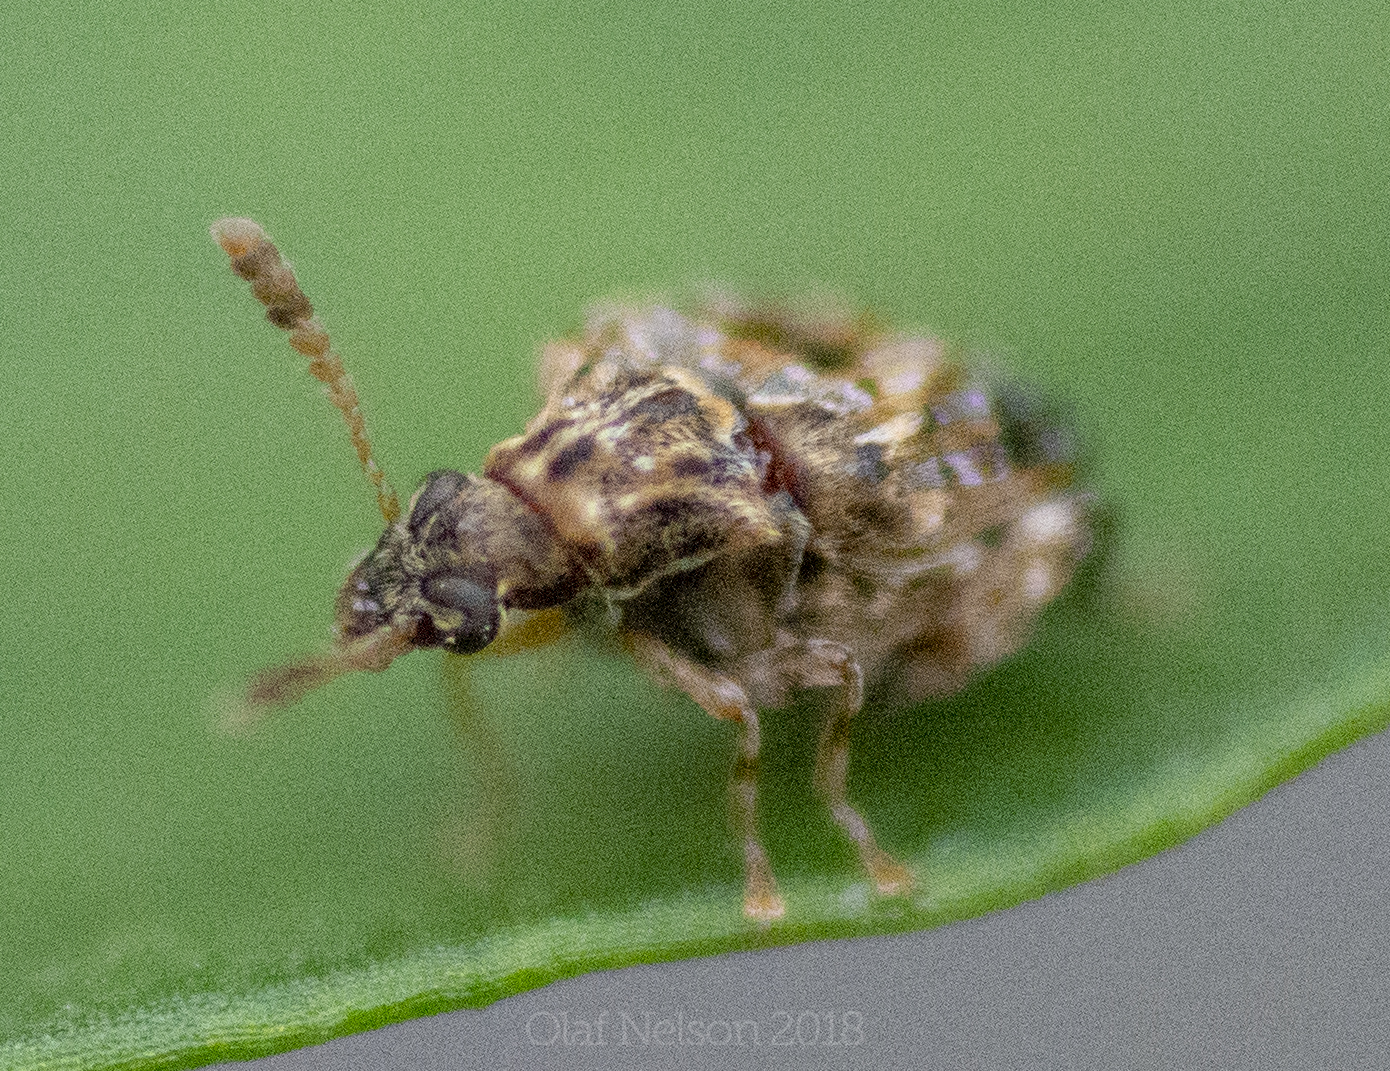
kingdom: Animalia
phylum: Arthropoda
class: Insecta
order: Coleoptera
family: Chrysomelidae
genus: Gibbobruchus
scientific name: Gibbobruchus mimus
